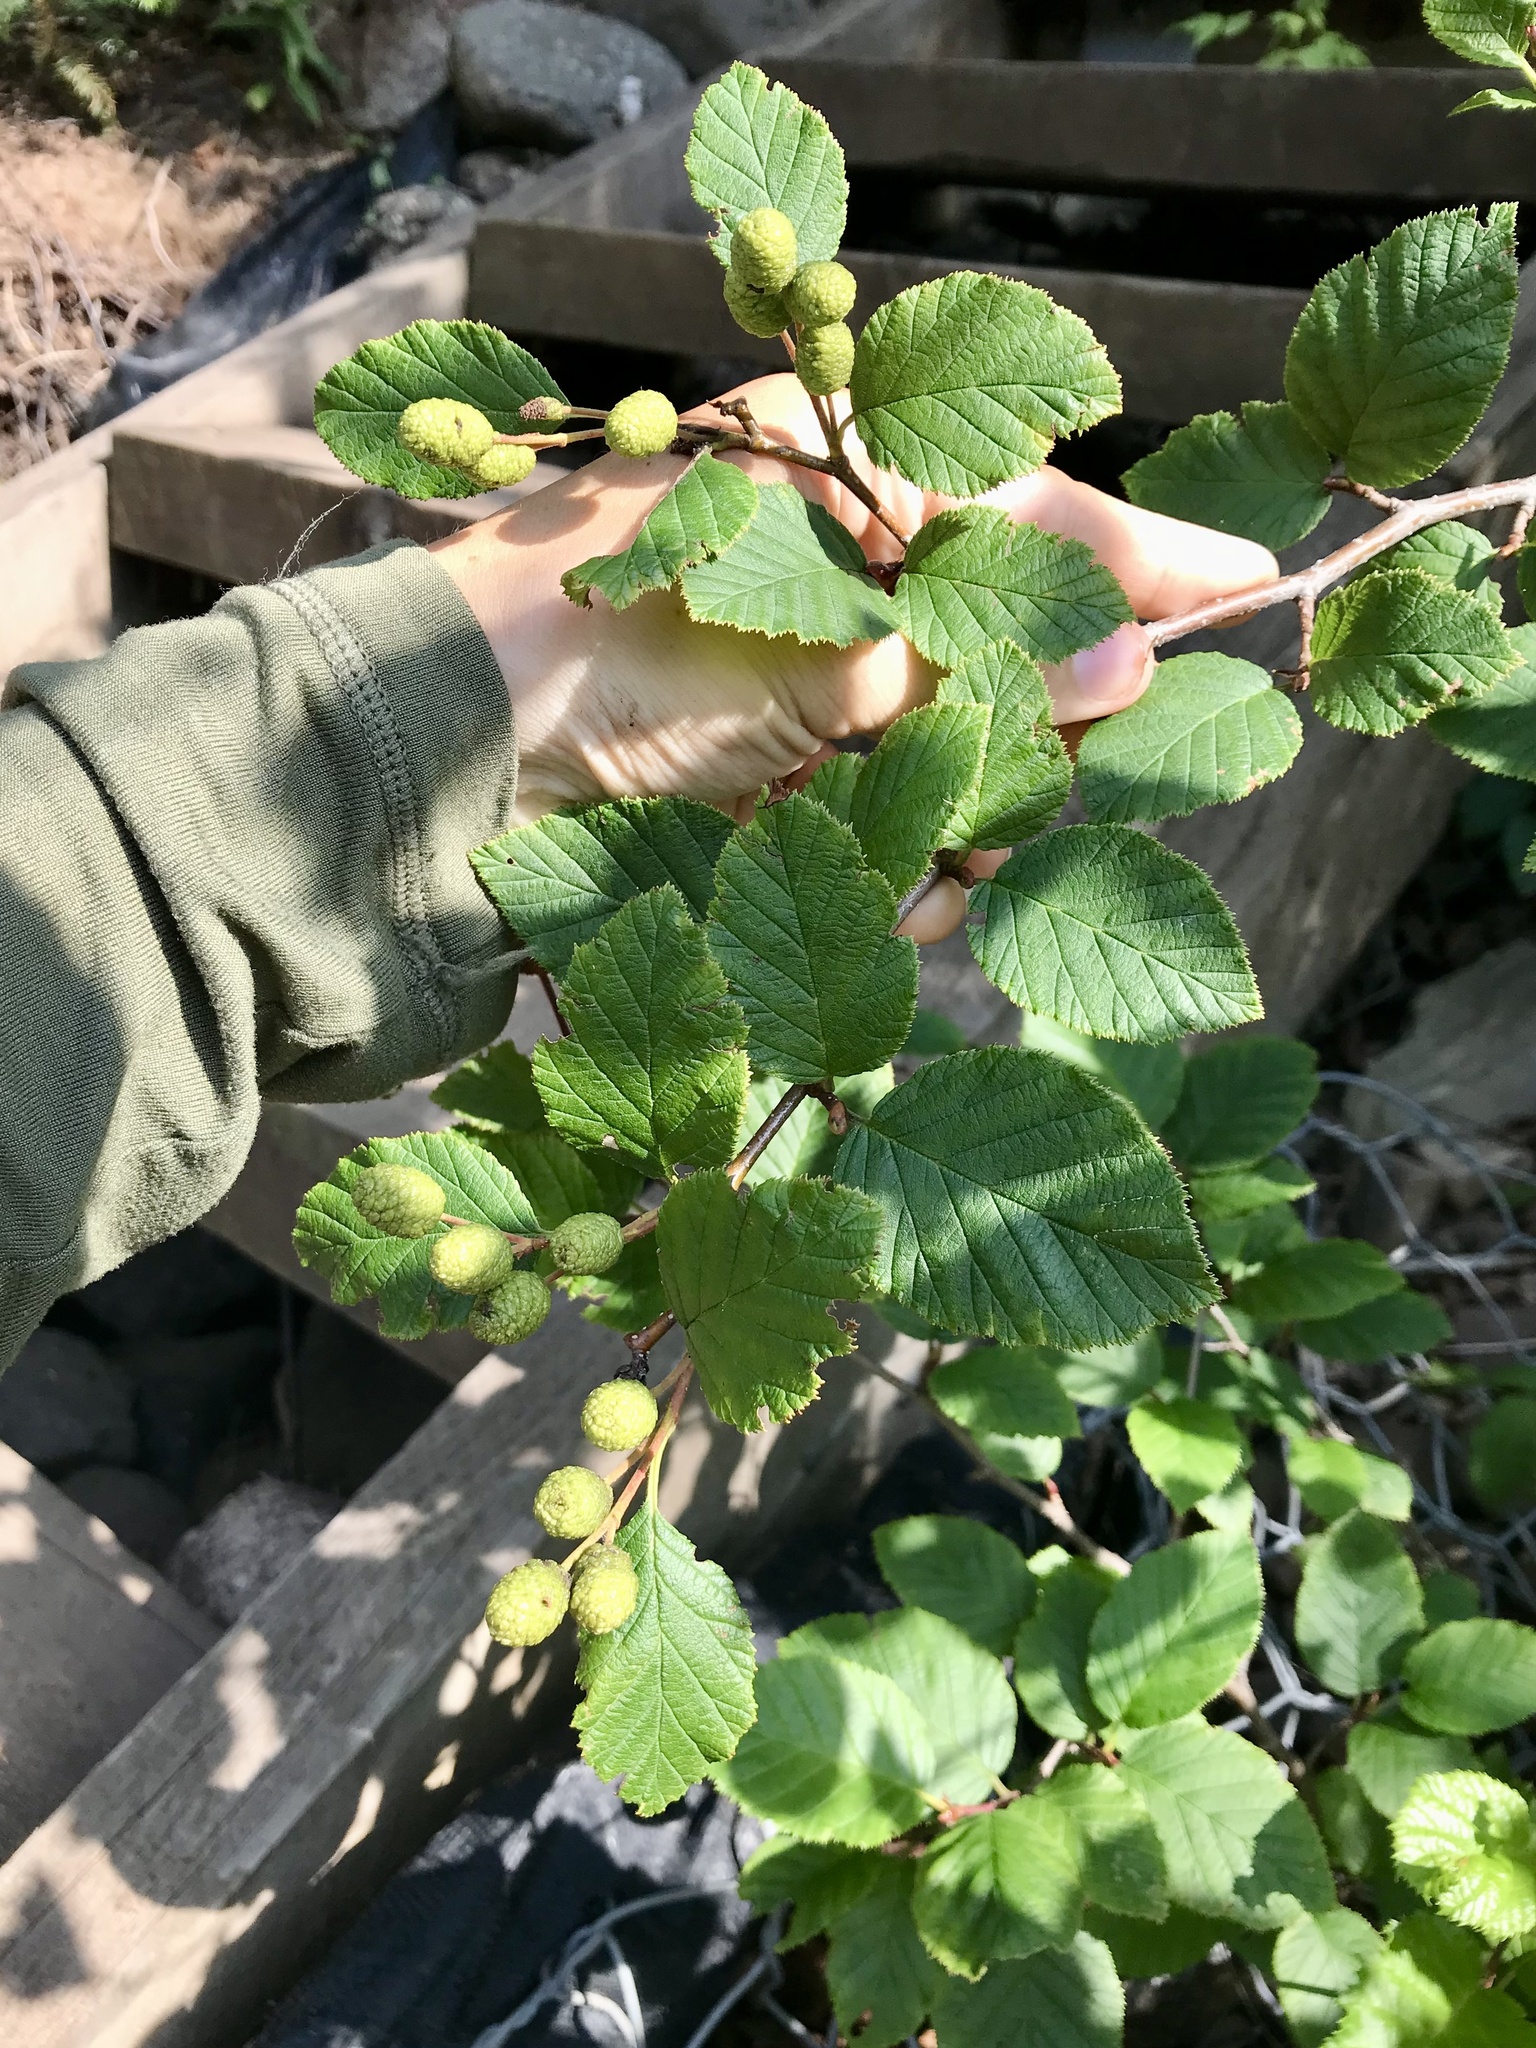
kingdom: Plantae
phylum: Tracheophyta
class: Magnoliopsida
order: Fagales
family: Betulaceae
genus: Alnus
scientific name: Alnus alnobetula
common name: Green alder
